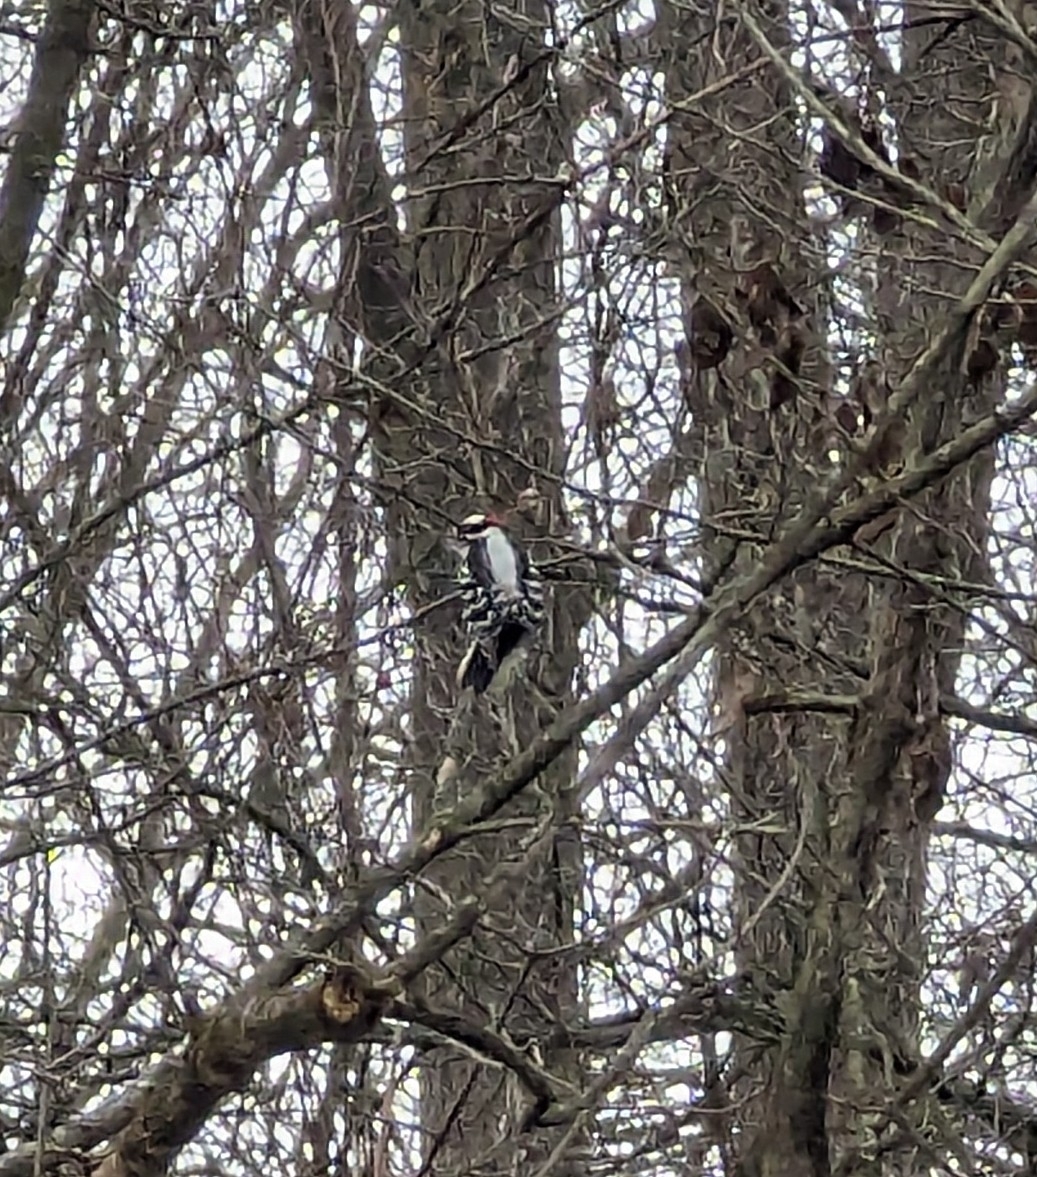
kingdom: Animalia
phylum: Chordata
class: Aves
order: Piciformes
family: Picidae
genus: Dryobates
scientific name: Dryobates pubescens
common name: Downy woodpecker
